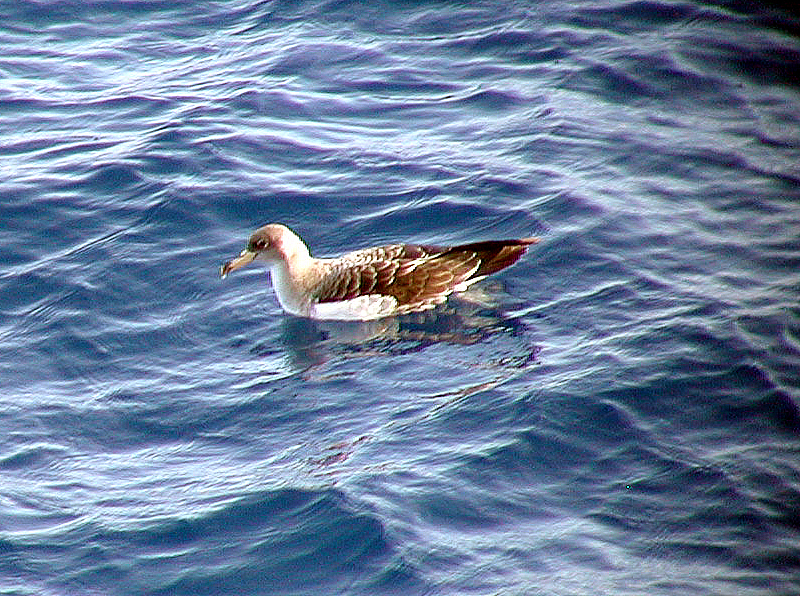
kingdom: Animalia
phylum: Chordata
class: Aves
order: Procellariiformes
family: Procellariidae
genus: Calonectris
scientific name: Calonectris diomedea
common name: Cory's shearwater
